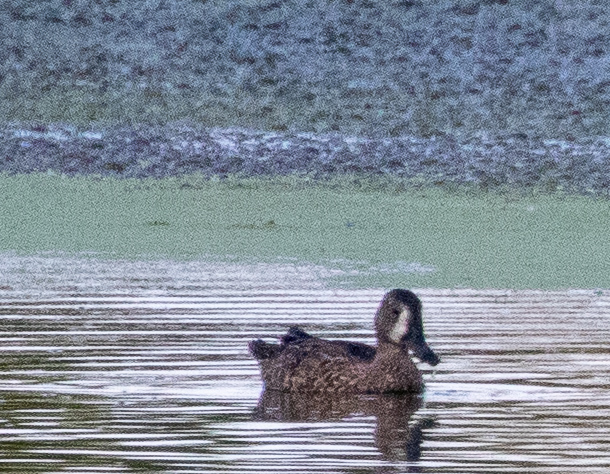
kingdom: Animalia
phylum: Chordata
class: Aves
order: Anseriformes
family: Anatidae
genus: Spatula
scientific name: Spatula discors
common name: Blue-winged teal
